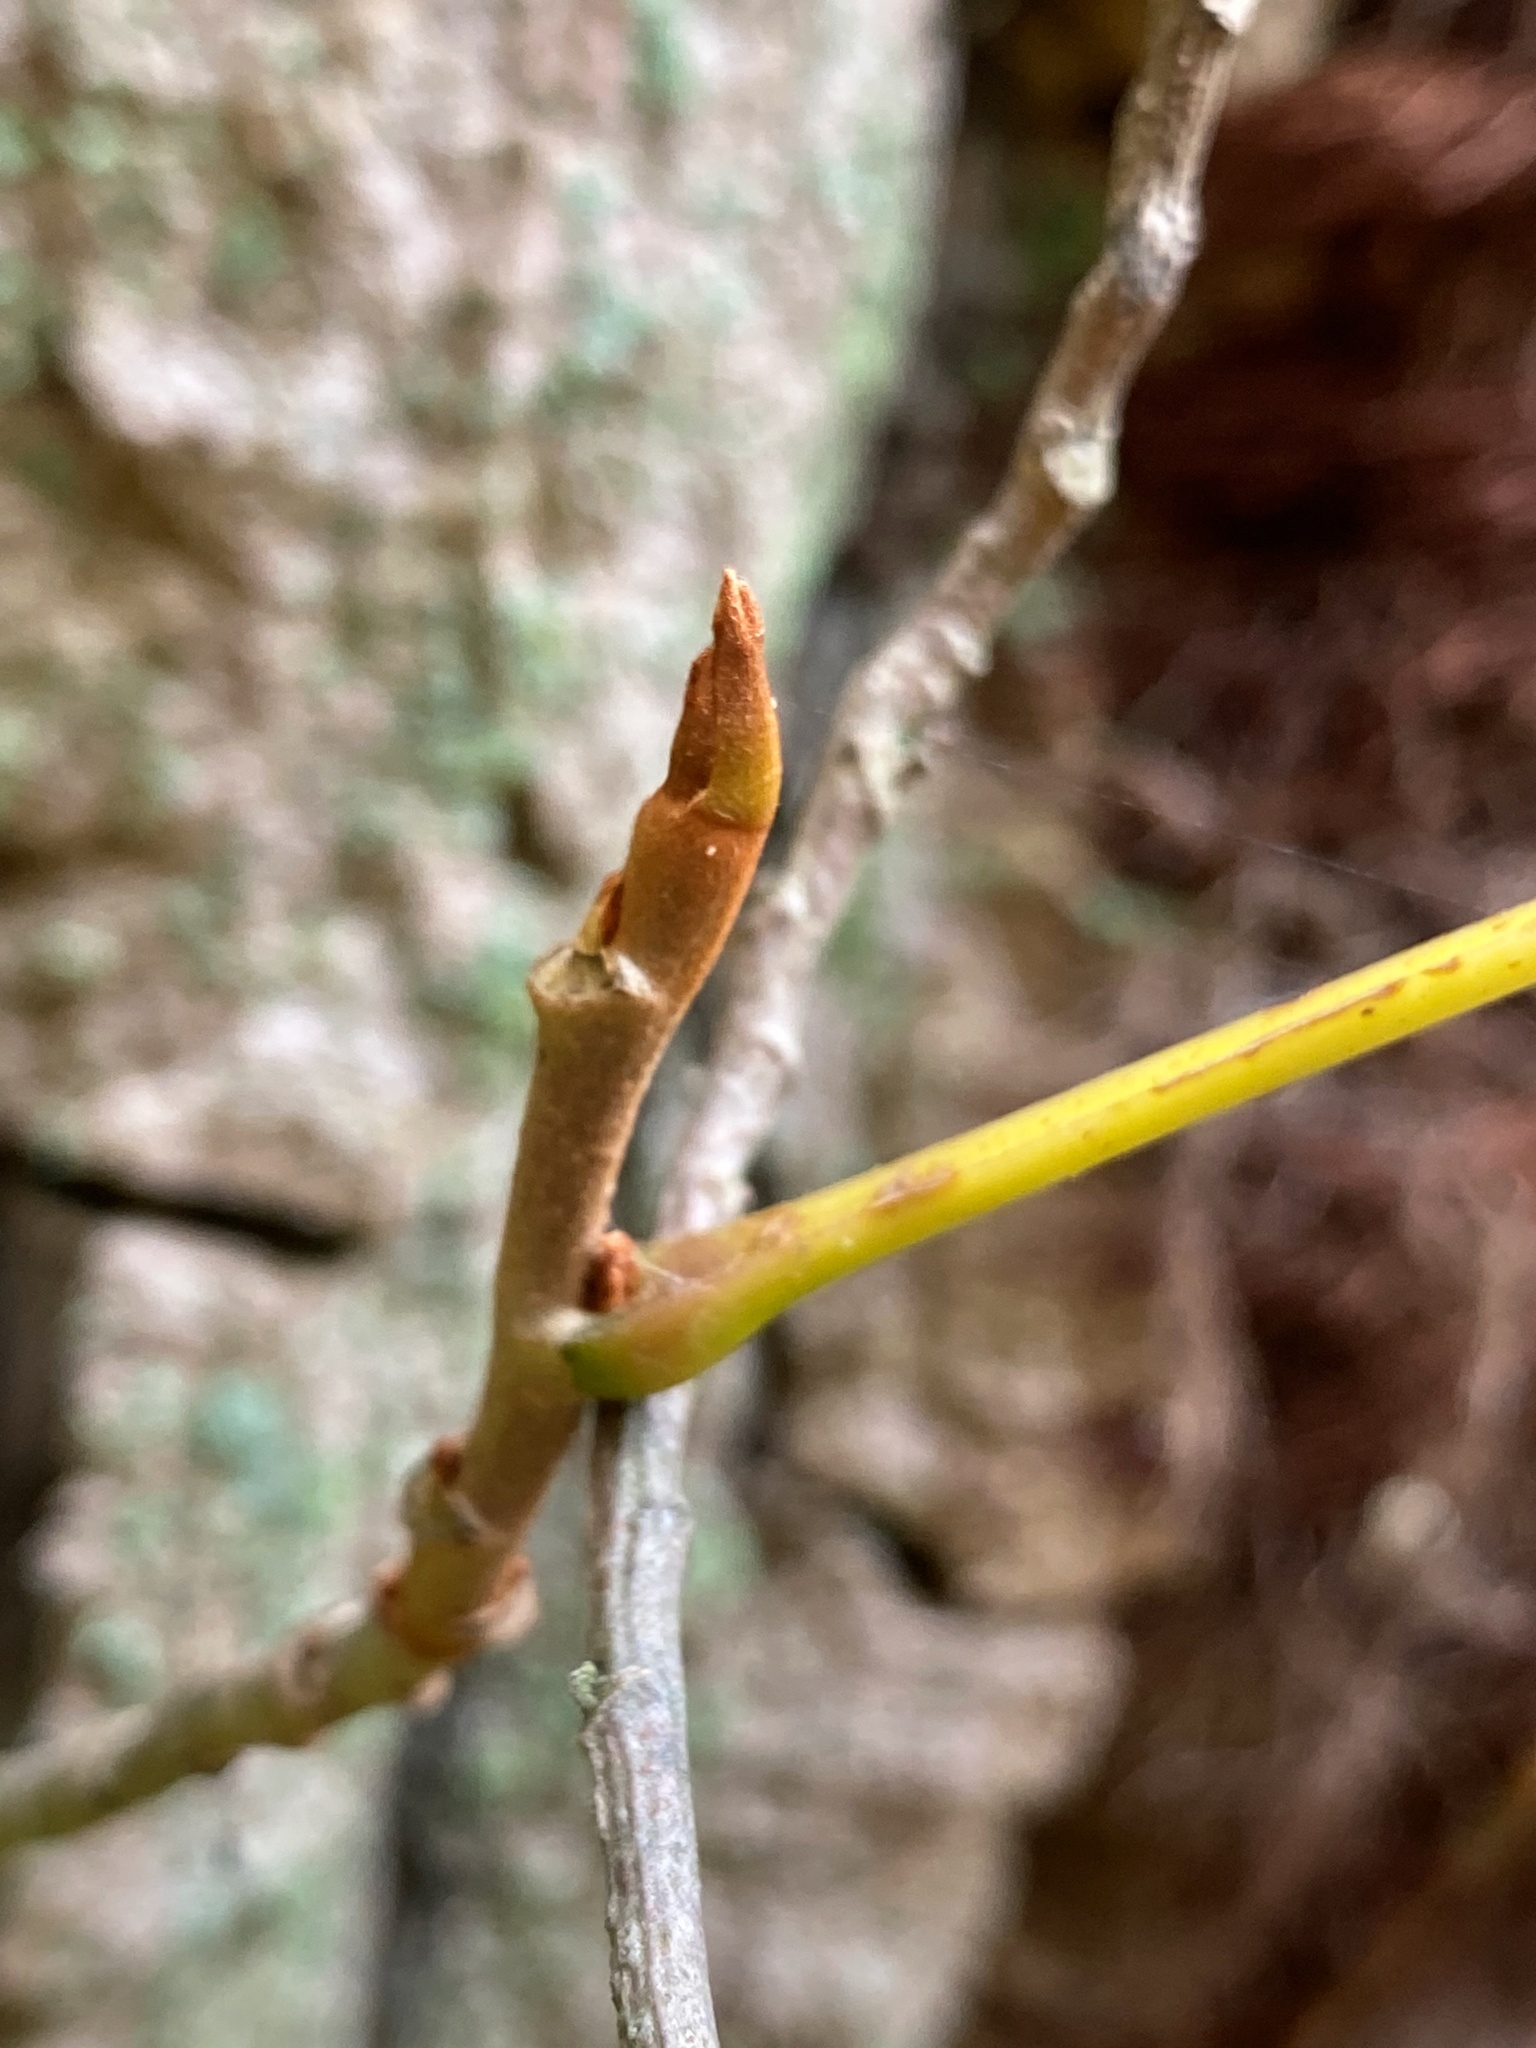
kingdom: Plantae
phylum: Tracheophyta
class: Magnoliopsida
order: Sapindales
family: Anacardiaceae
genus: Toxicodendron
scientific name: Toxicodendron radicans
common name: Poison ivy
